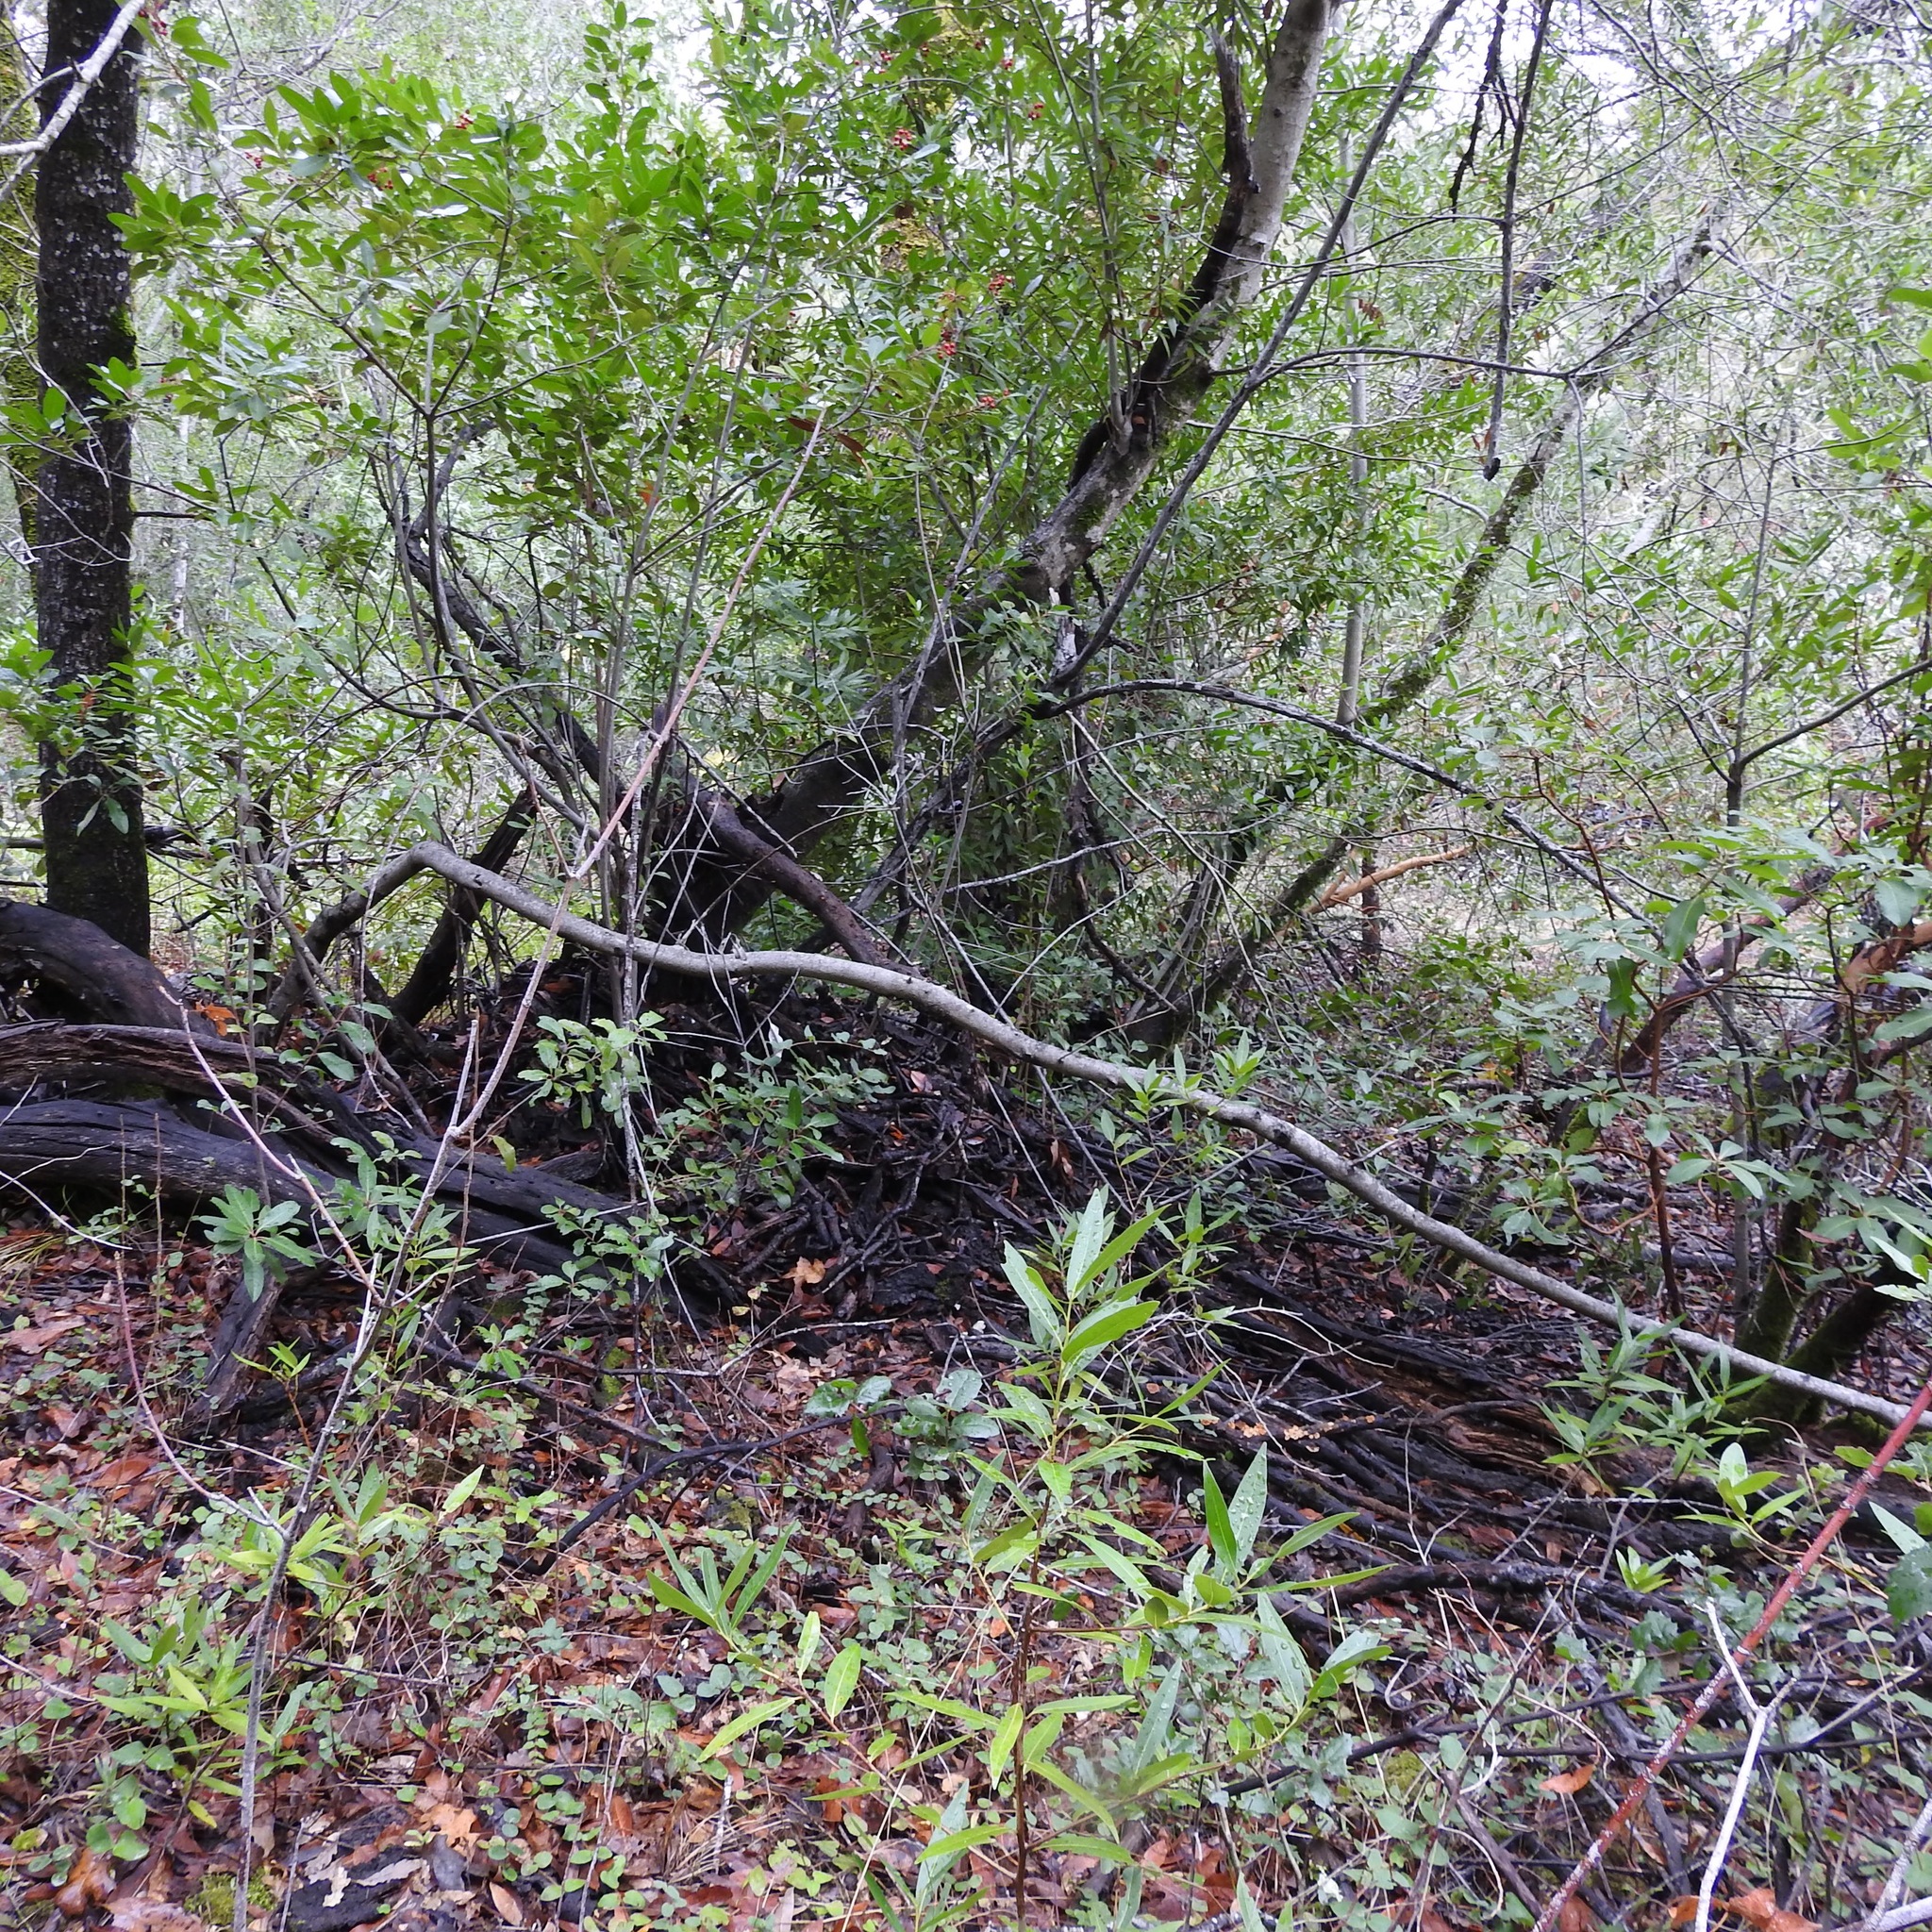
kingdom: Animalia
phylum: Chordata
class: Mammalia
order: Rodentia
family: Cricetidae
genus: Neotoma
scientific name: Neotoma fuscipes
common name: Dusky-footed woodrat
